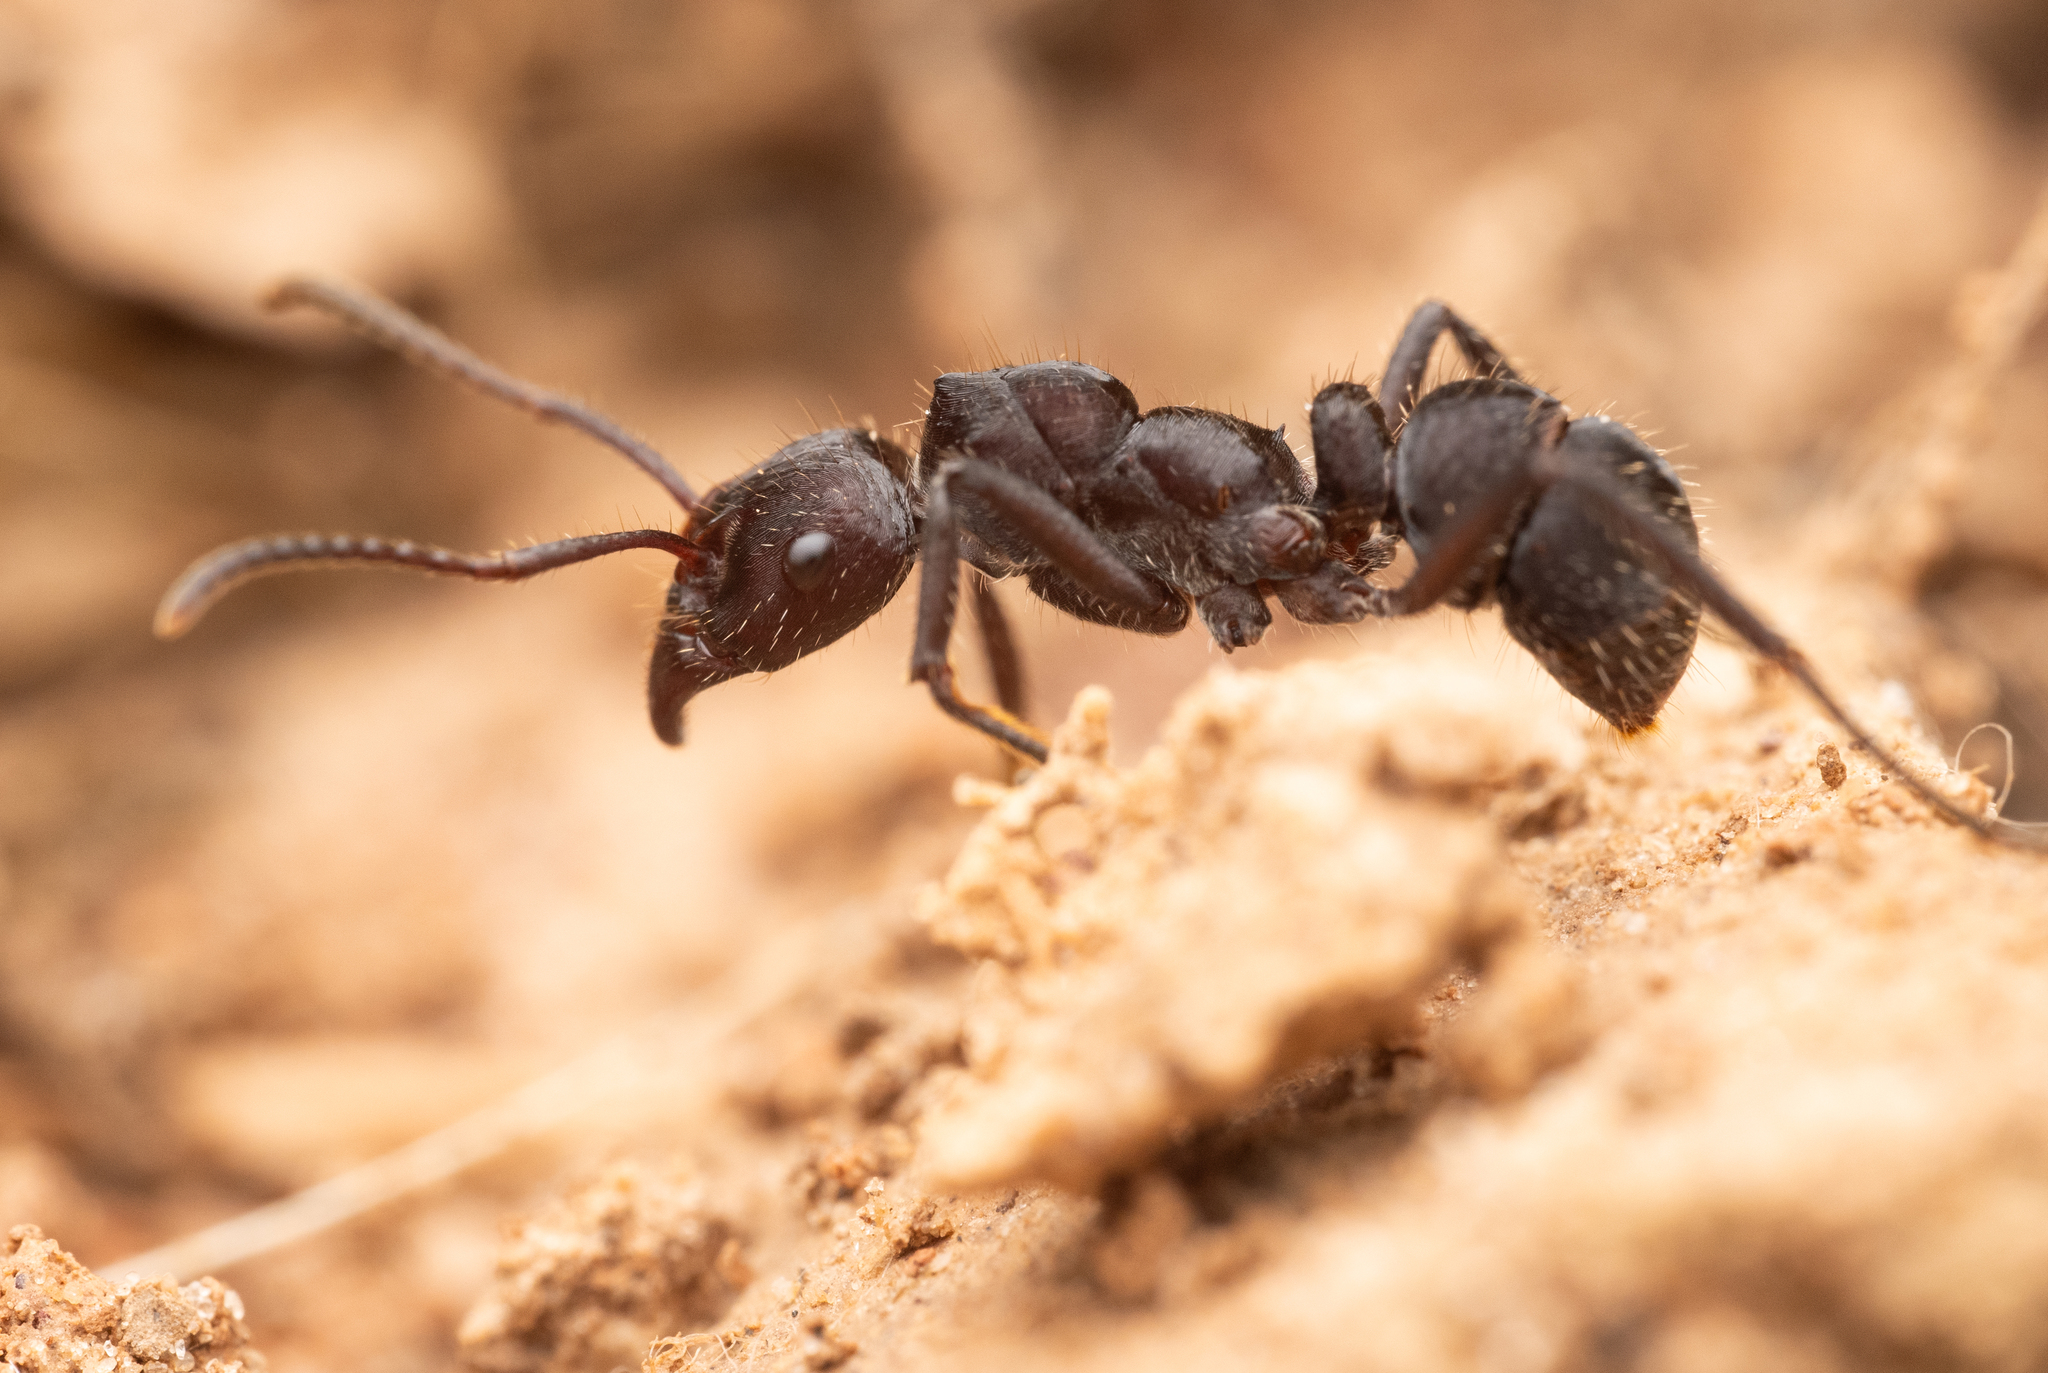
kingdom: Animalia
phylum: Arthropoda
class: Insecta
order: Hymenoptera
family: Formicidae
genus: Ectatomma
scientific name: Ectatomma brunneum
